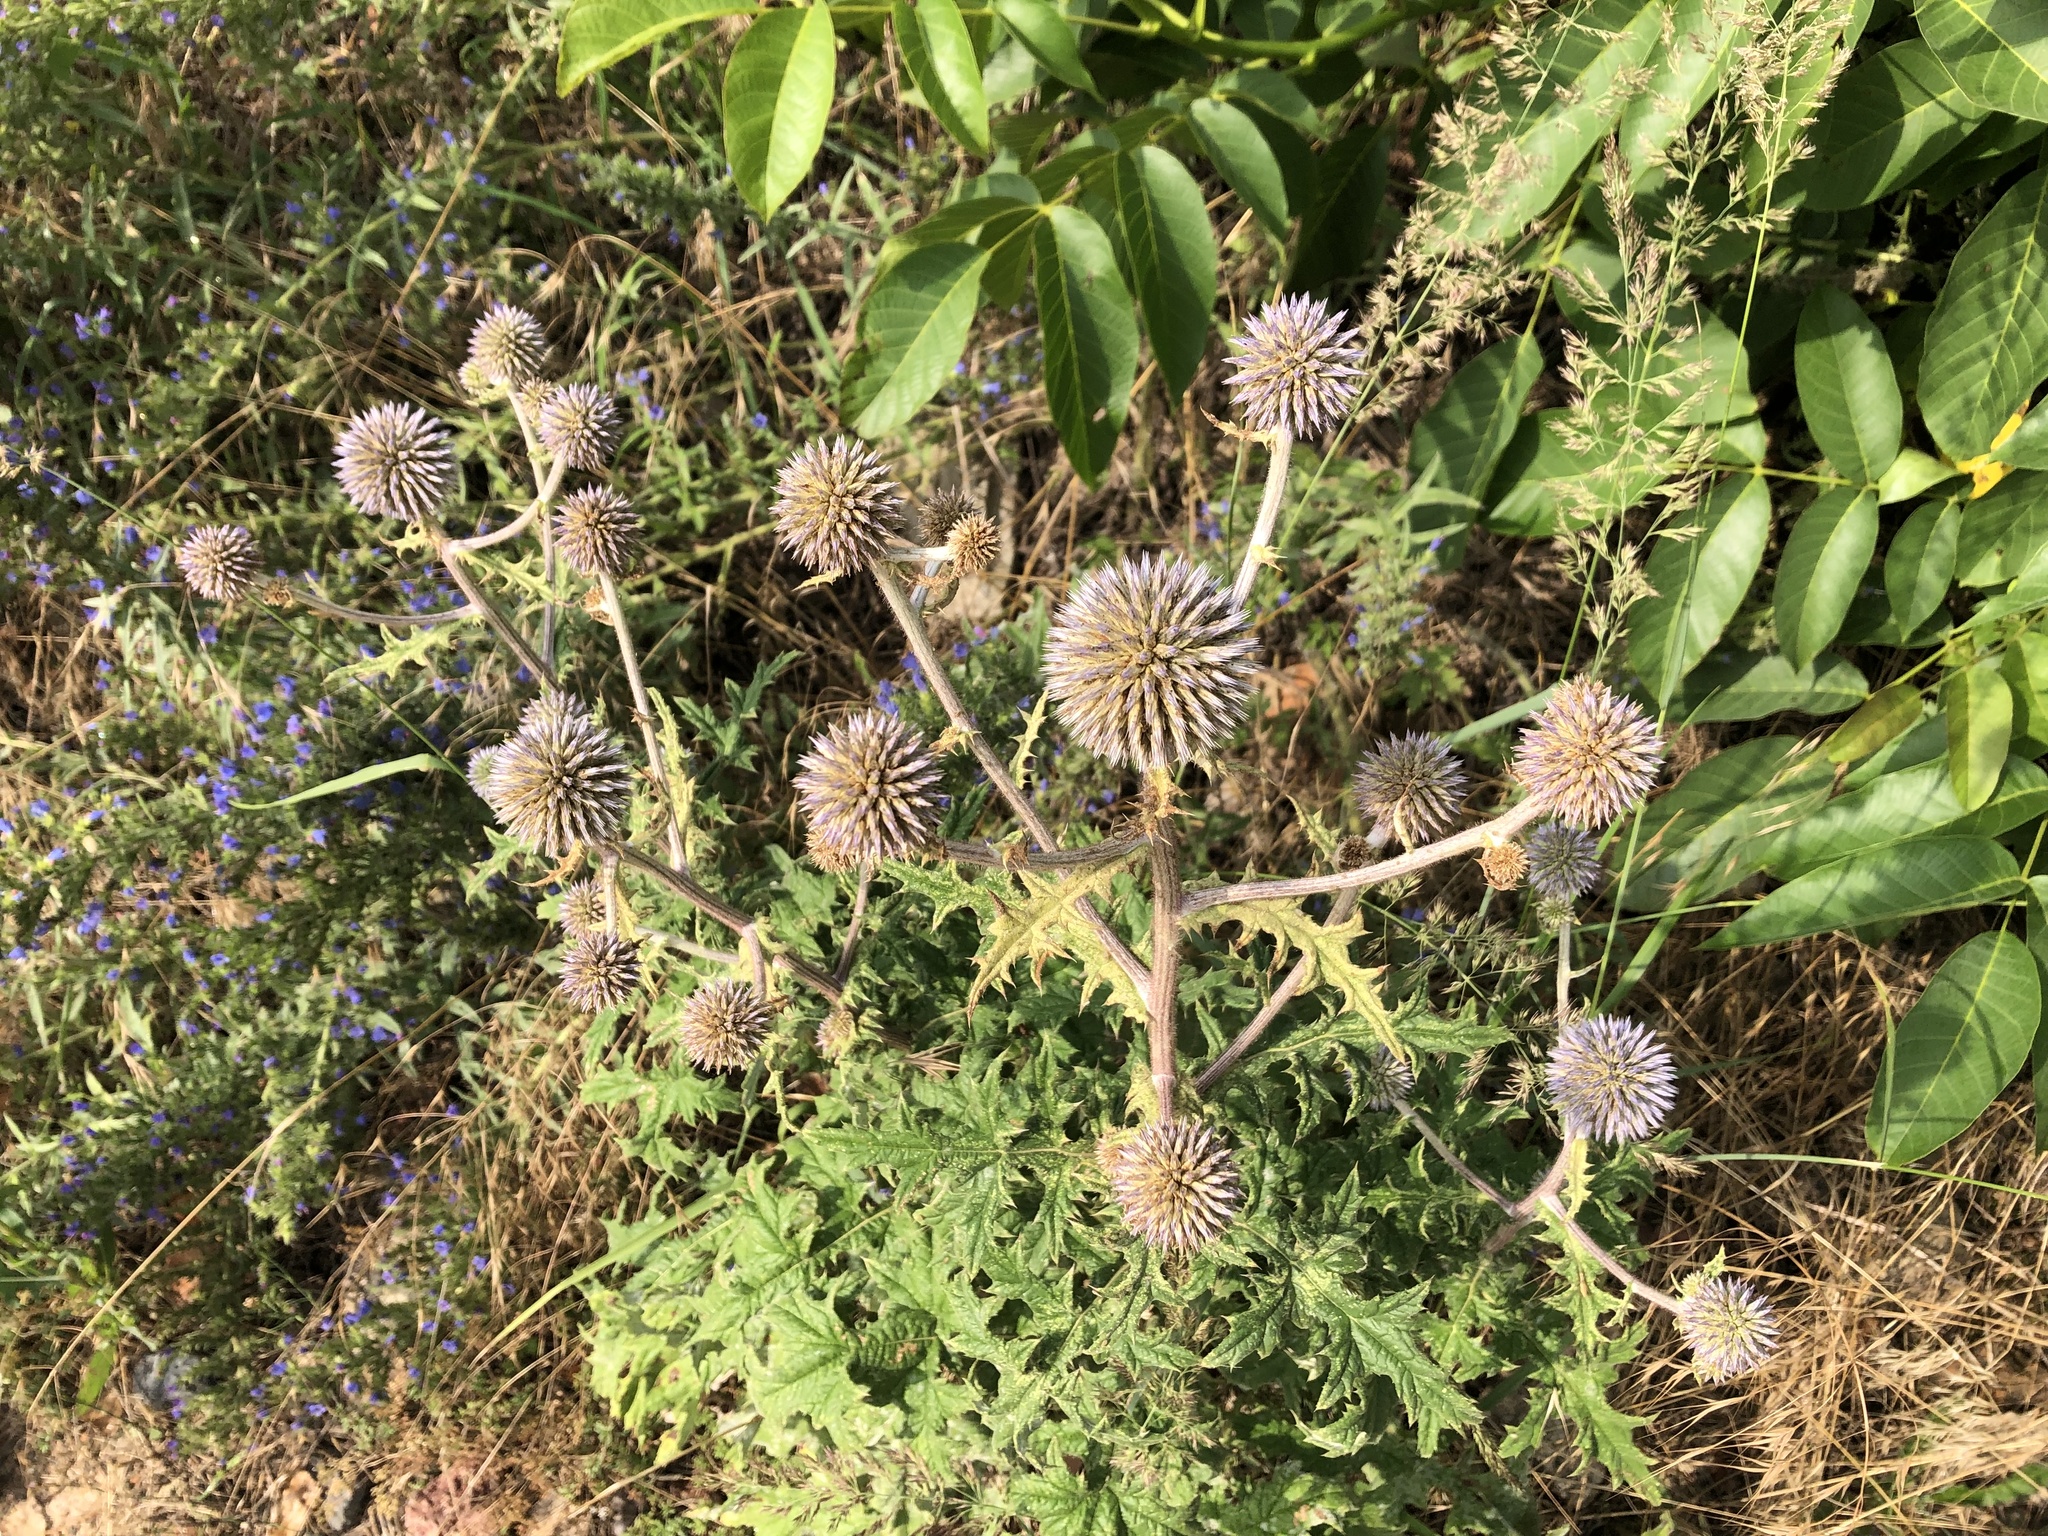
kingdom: Plantae
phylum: Tracheophyta
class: Magnoliopsida
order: Asterales
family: Asteraceae
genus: Echinops
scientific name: Echinops sphaerocephalus
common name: Glandular globe-thistle
